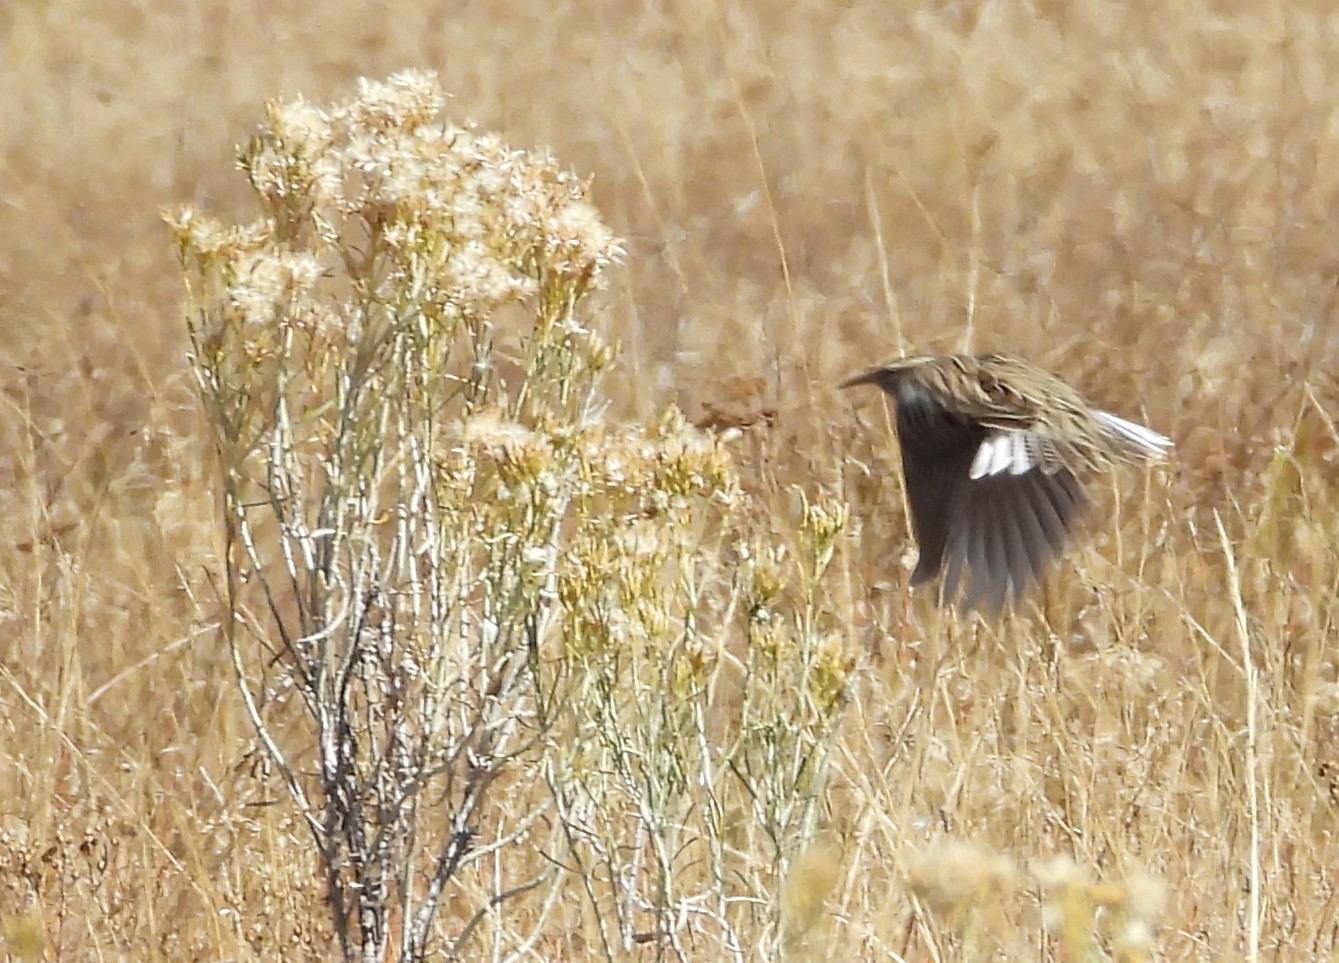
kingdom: Animalia
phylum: Chordata
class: Aves
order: Passeriformes
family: Icteridae
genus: Sturnella
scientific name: Sturnella neglecta
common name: Western meadowlark
